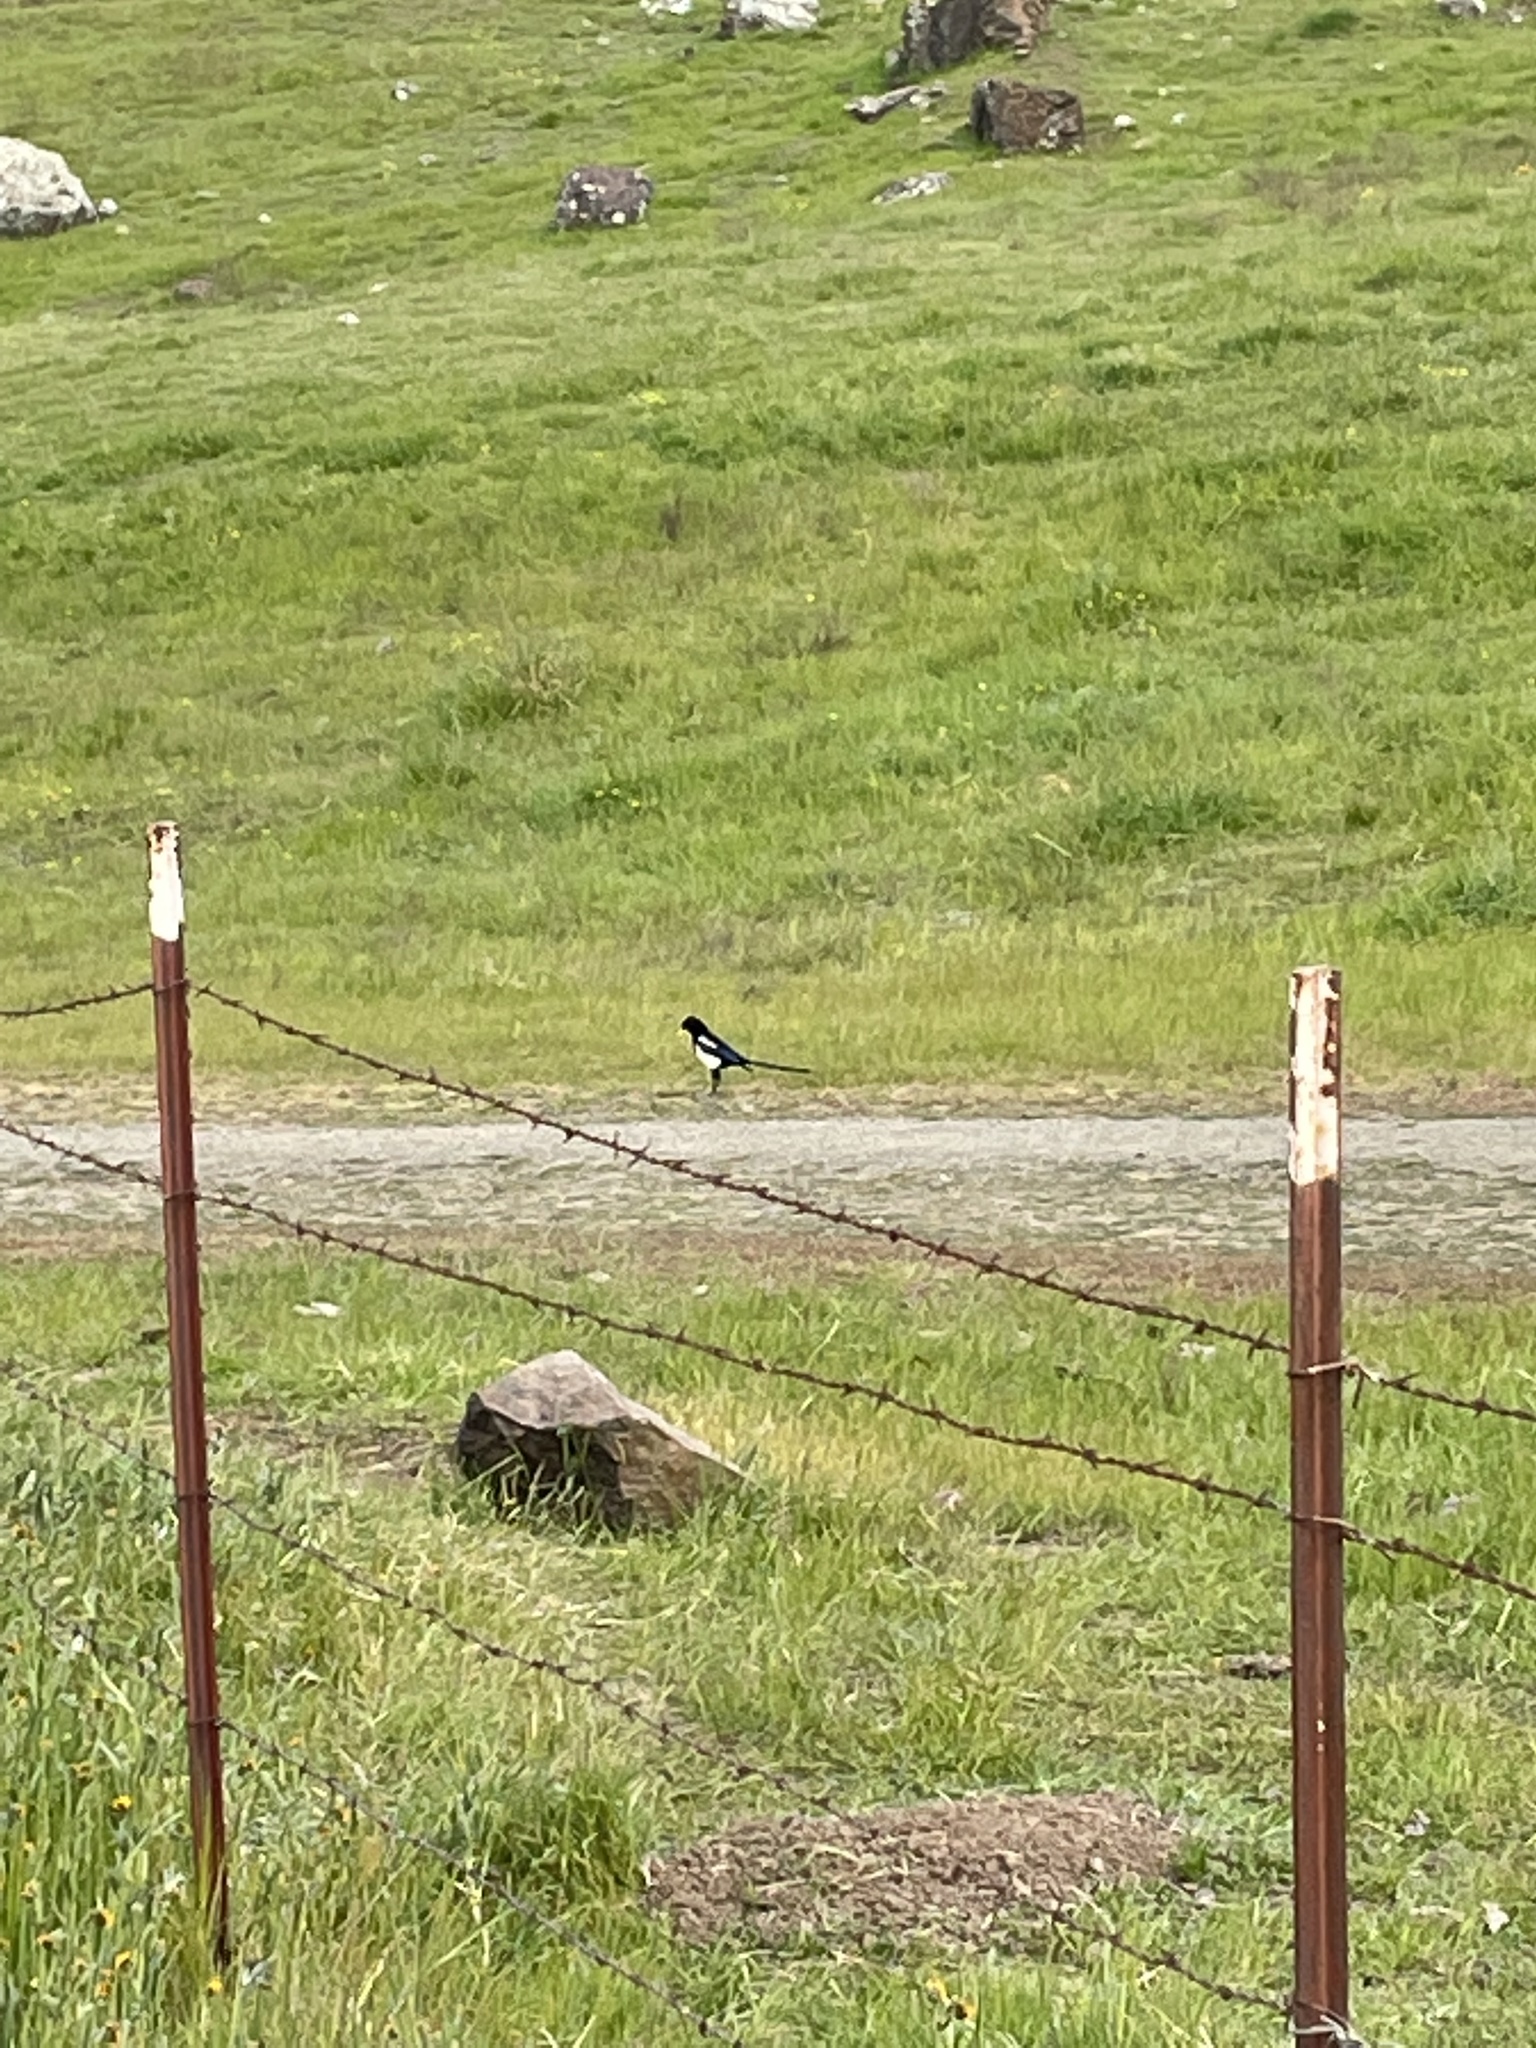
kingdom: Animalia
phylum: Chordata
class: Aves
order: Passeriformes
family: Corvidae
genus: Pica
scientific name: Pica nuttalli
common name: Yellow-billed magpie
